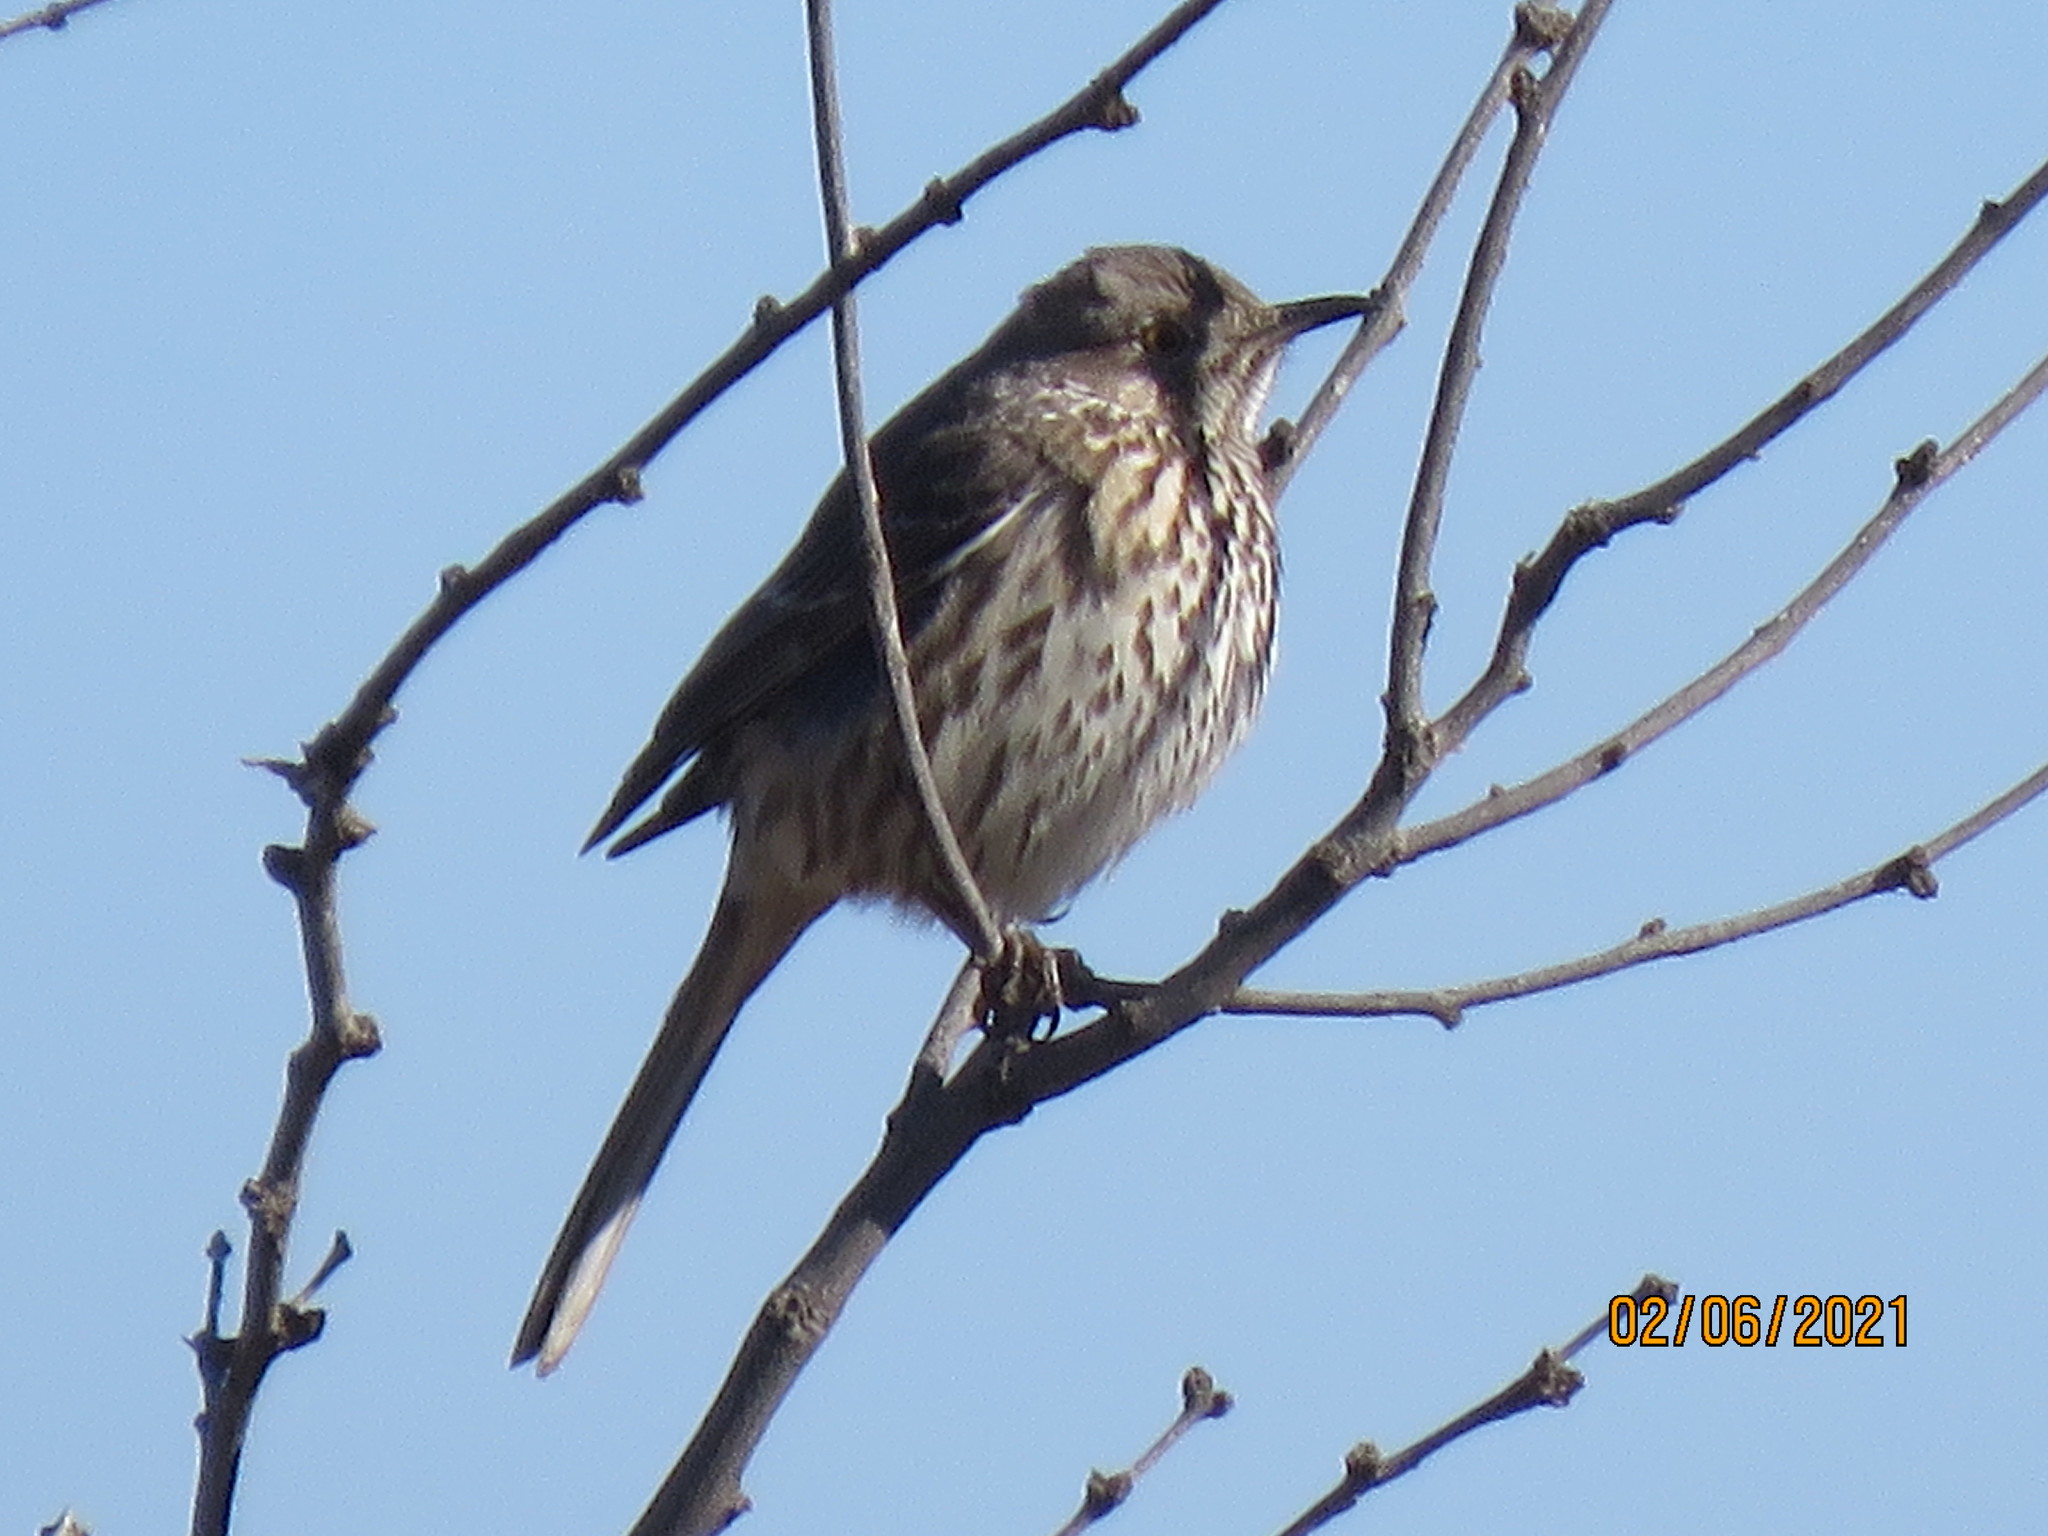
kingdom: Animalia
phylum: Chordata
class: Aves
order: Passeriformes
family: Mimidae
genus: Oreoscoptes
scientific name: Oreoscoptes montanus
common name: Sage thrasher
